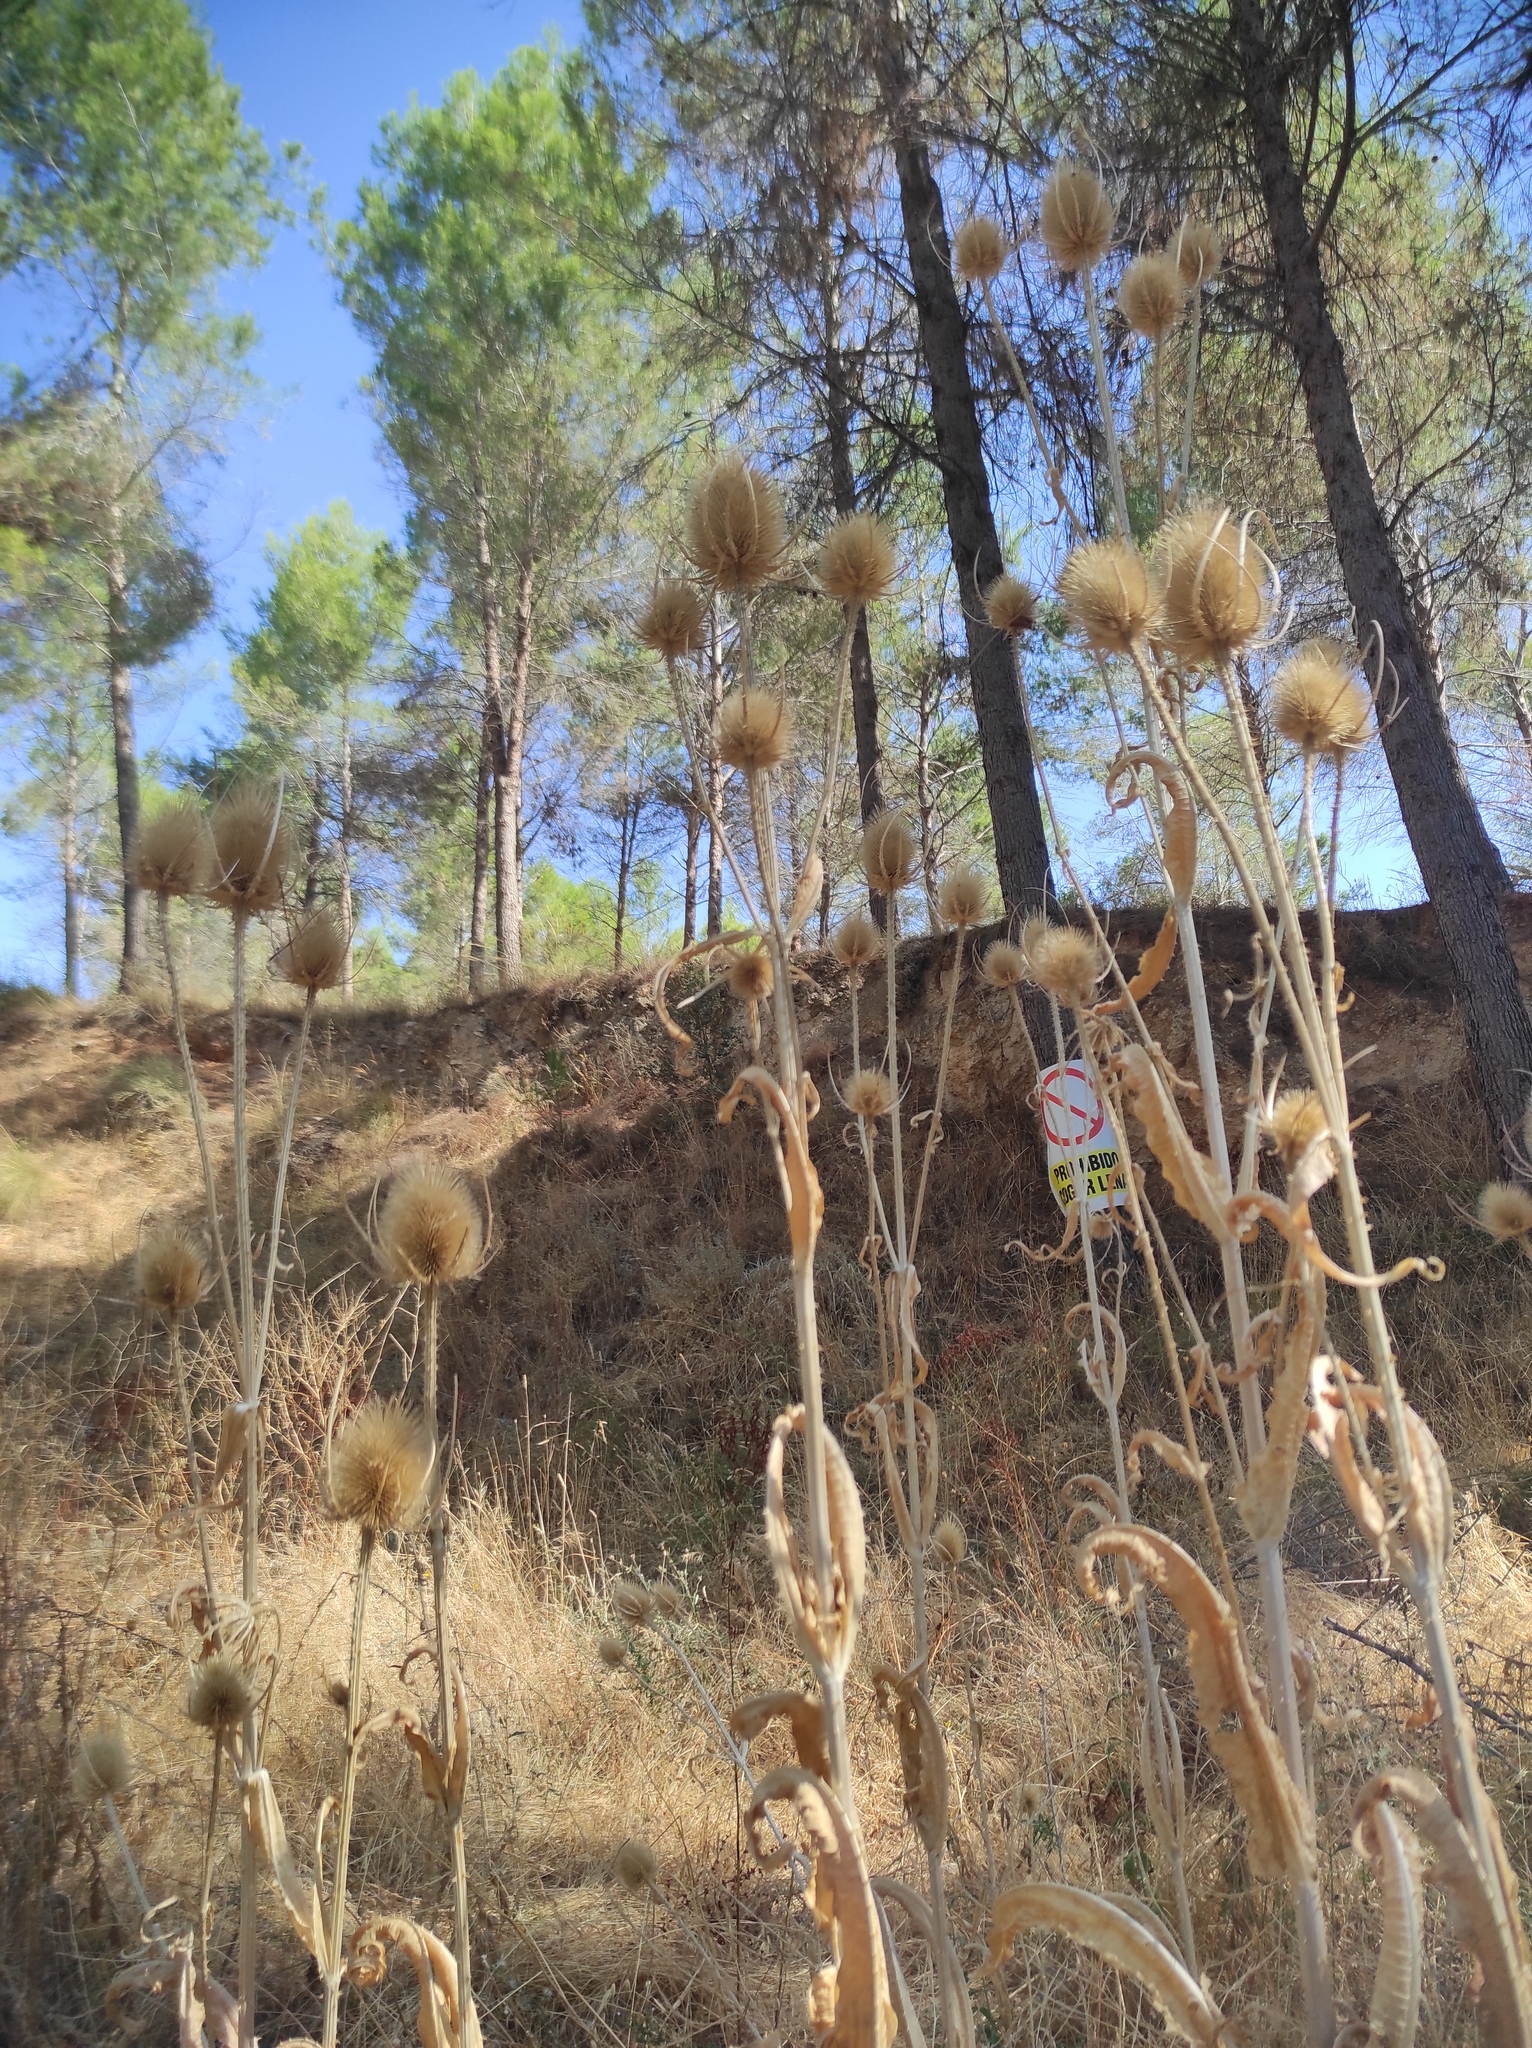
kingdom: Plantae
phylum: Tracheophyta
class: Magnoliopsida
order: Dipsacales
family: Caprifoliaceae
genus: Dipsacus
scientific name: Dipsacus fullonum
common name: Teasel
